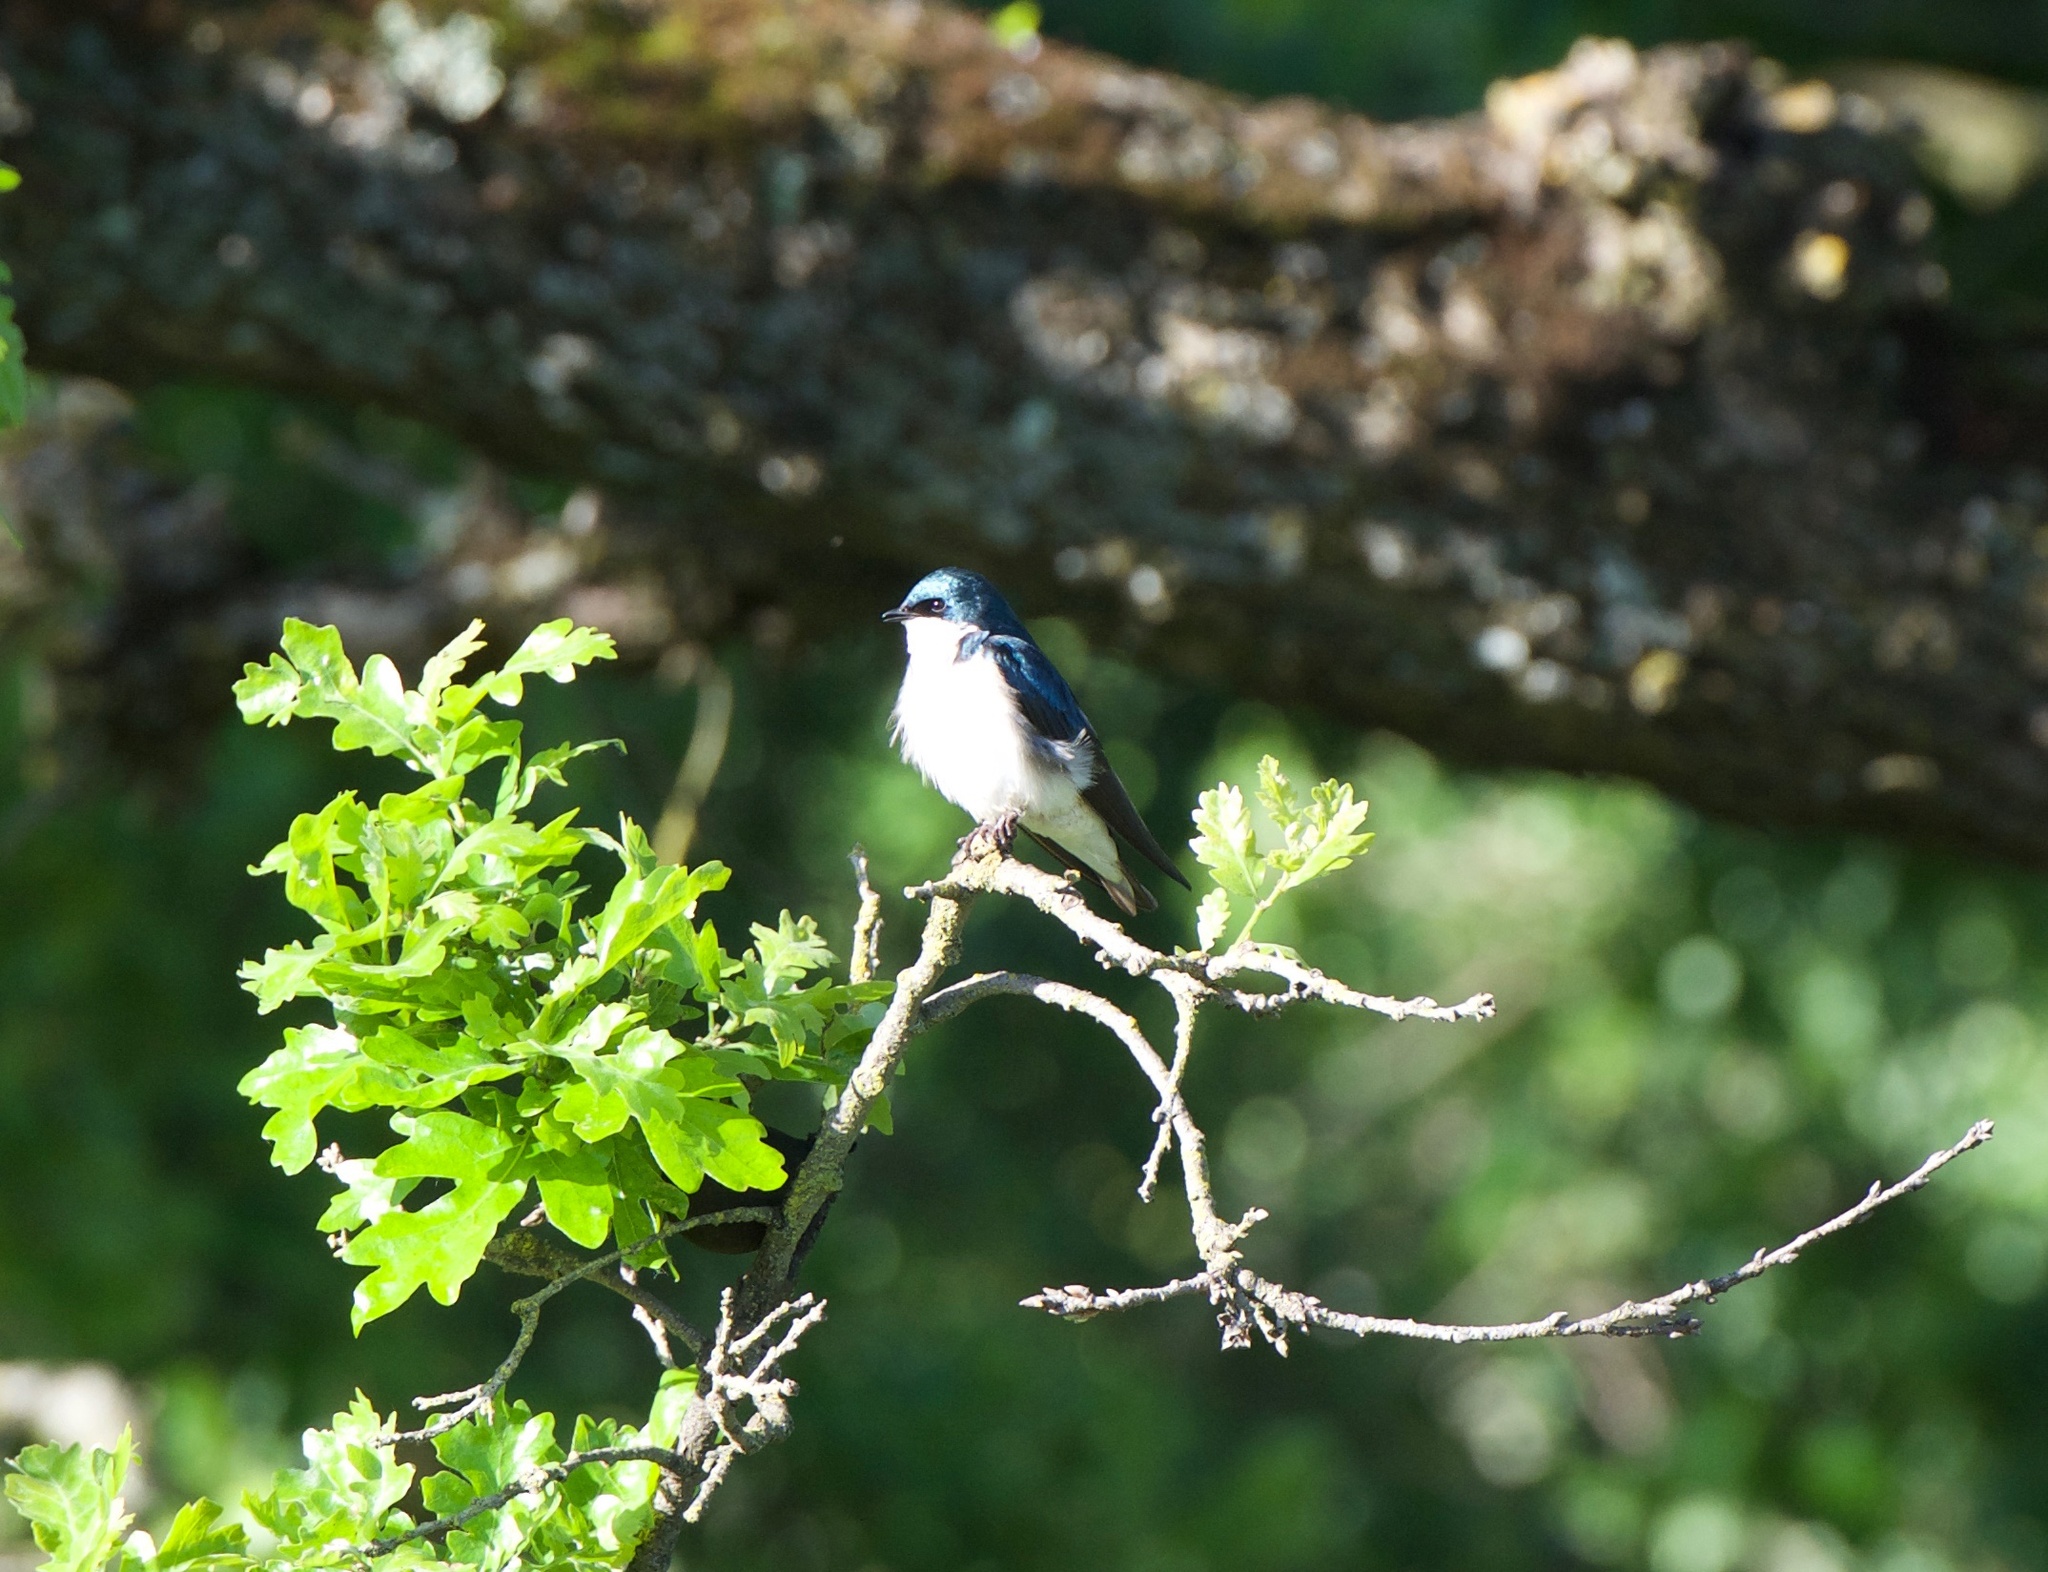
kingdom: Animalia
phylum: Chordata
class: Aves
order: Passeriformes
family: Hirundinidae
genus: Tachycineta
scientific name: Tachycineta bicolor
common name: Tree swallow
